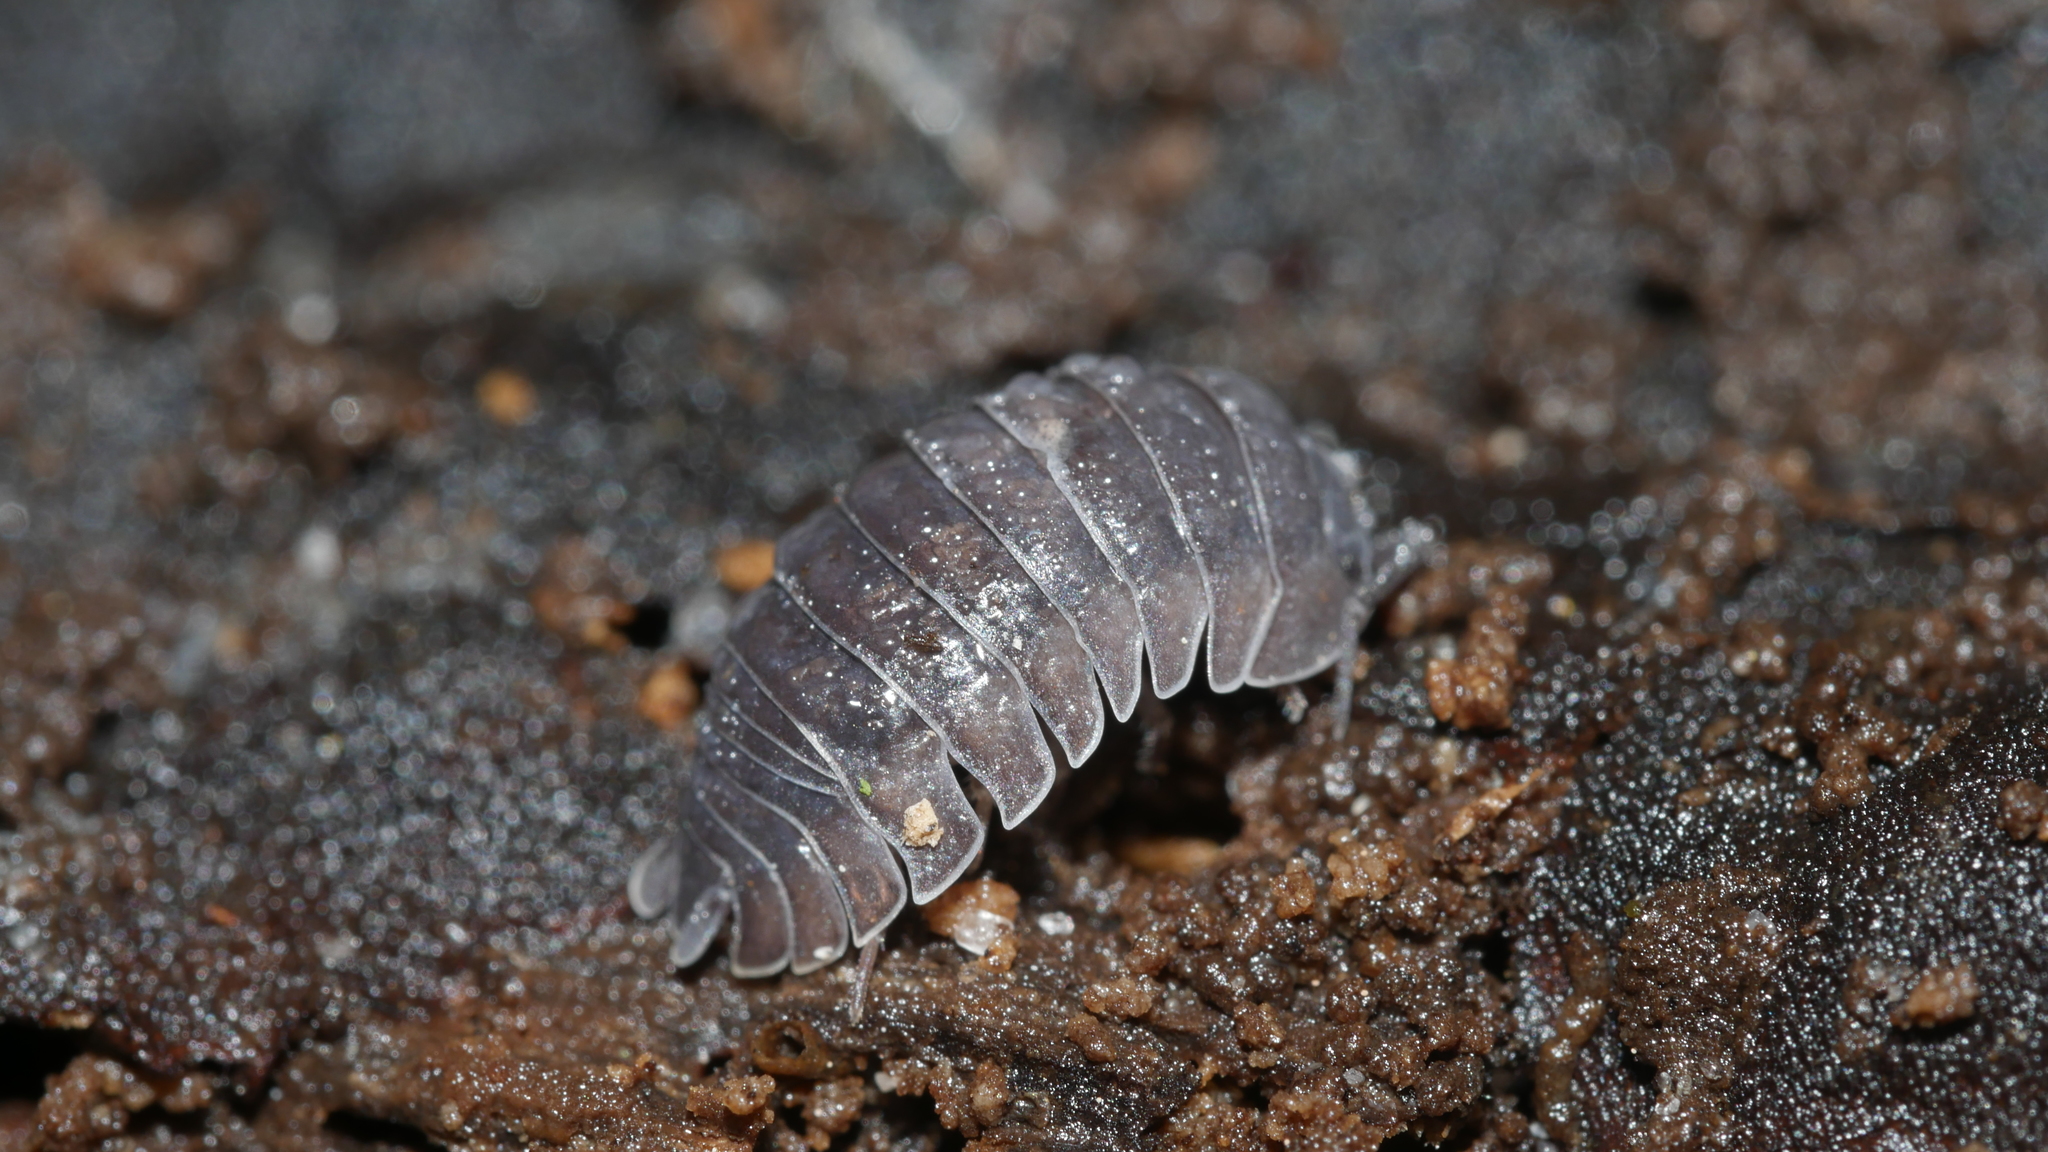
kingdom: Animalia
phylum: Arthropoda
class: Malacostraca
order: Isopoda
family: Armadillidiidae
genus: Armadillidium
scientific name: Armadillidium nasatum
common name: Isopod
